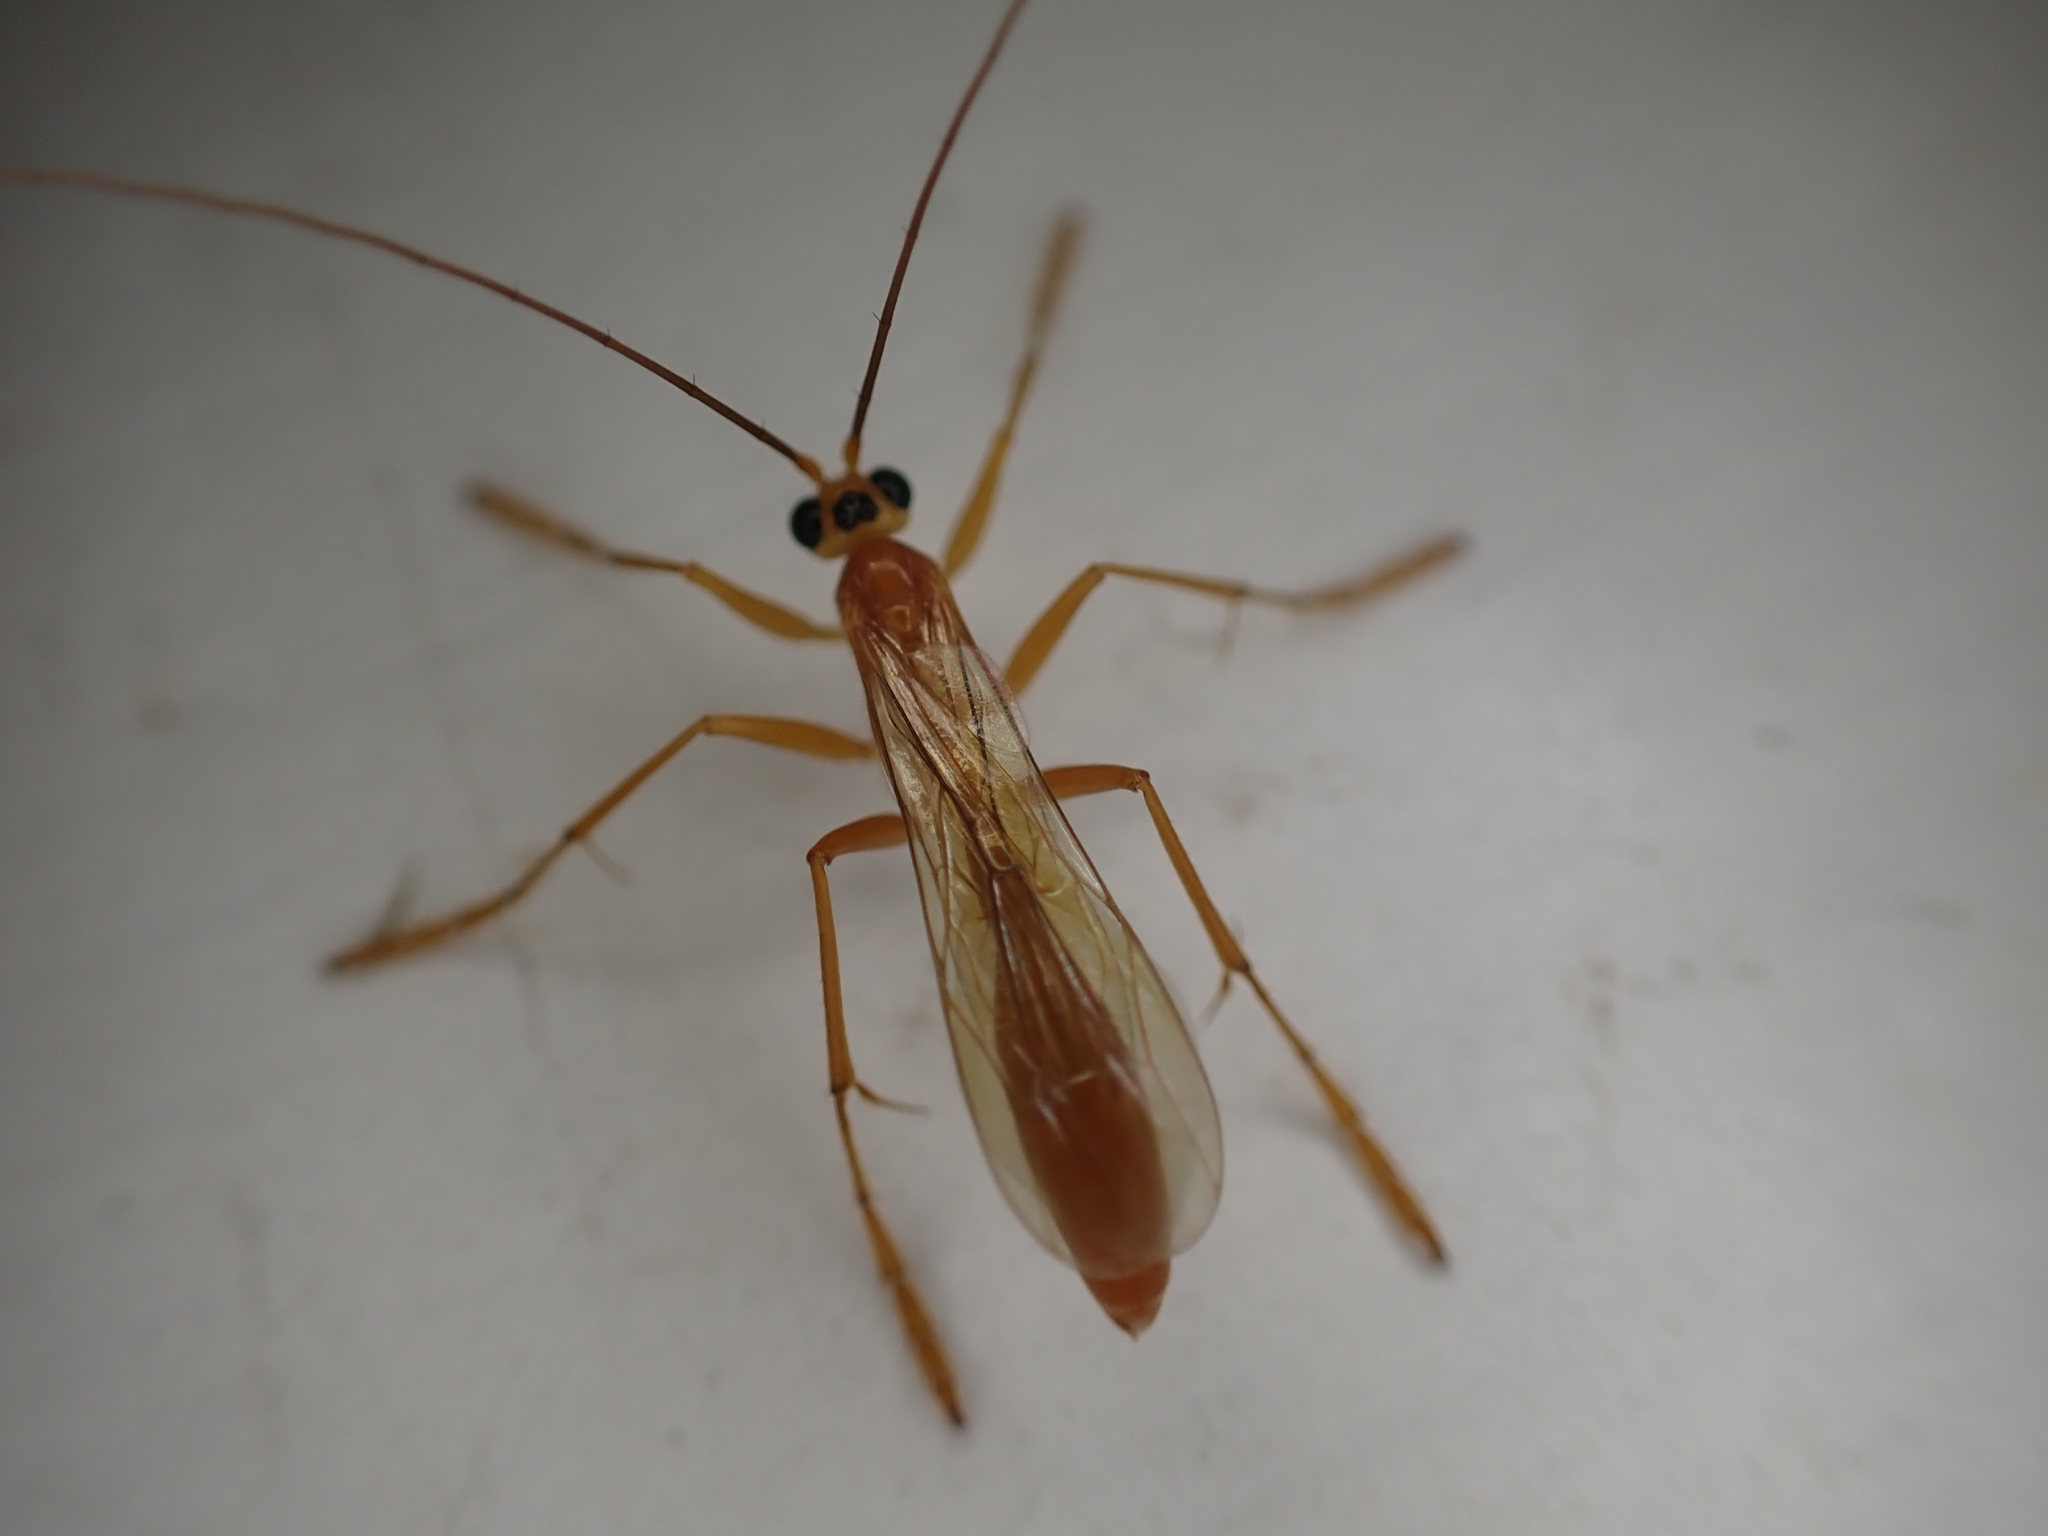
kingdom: Animalia
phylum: Arthropoda
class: Insecta
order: Hymenoptera
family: Rhopalosomatidae
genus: Rhopalosoma
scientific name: Rhopalosoma nearcticum
